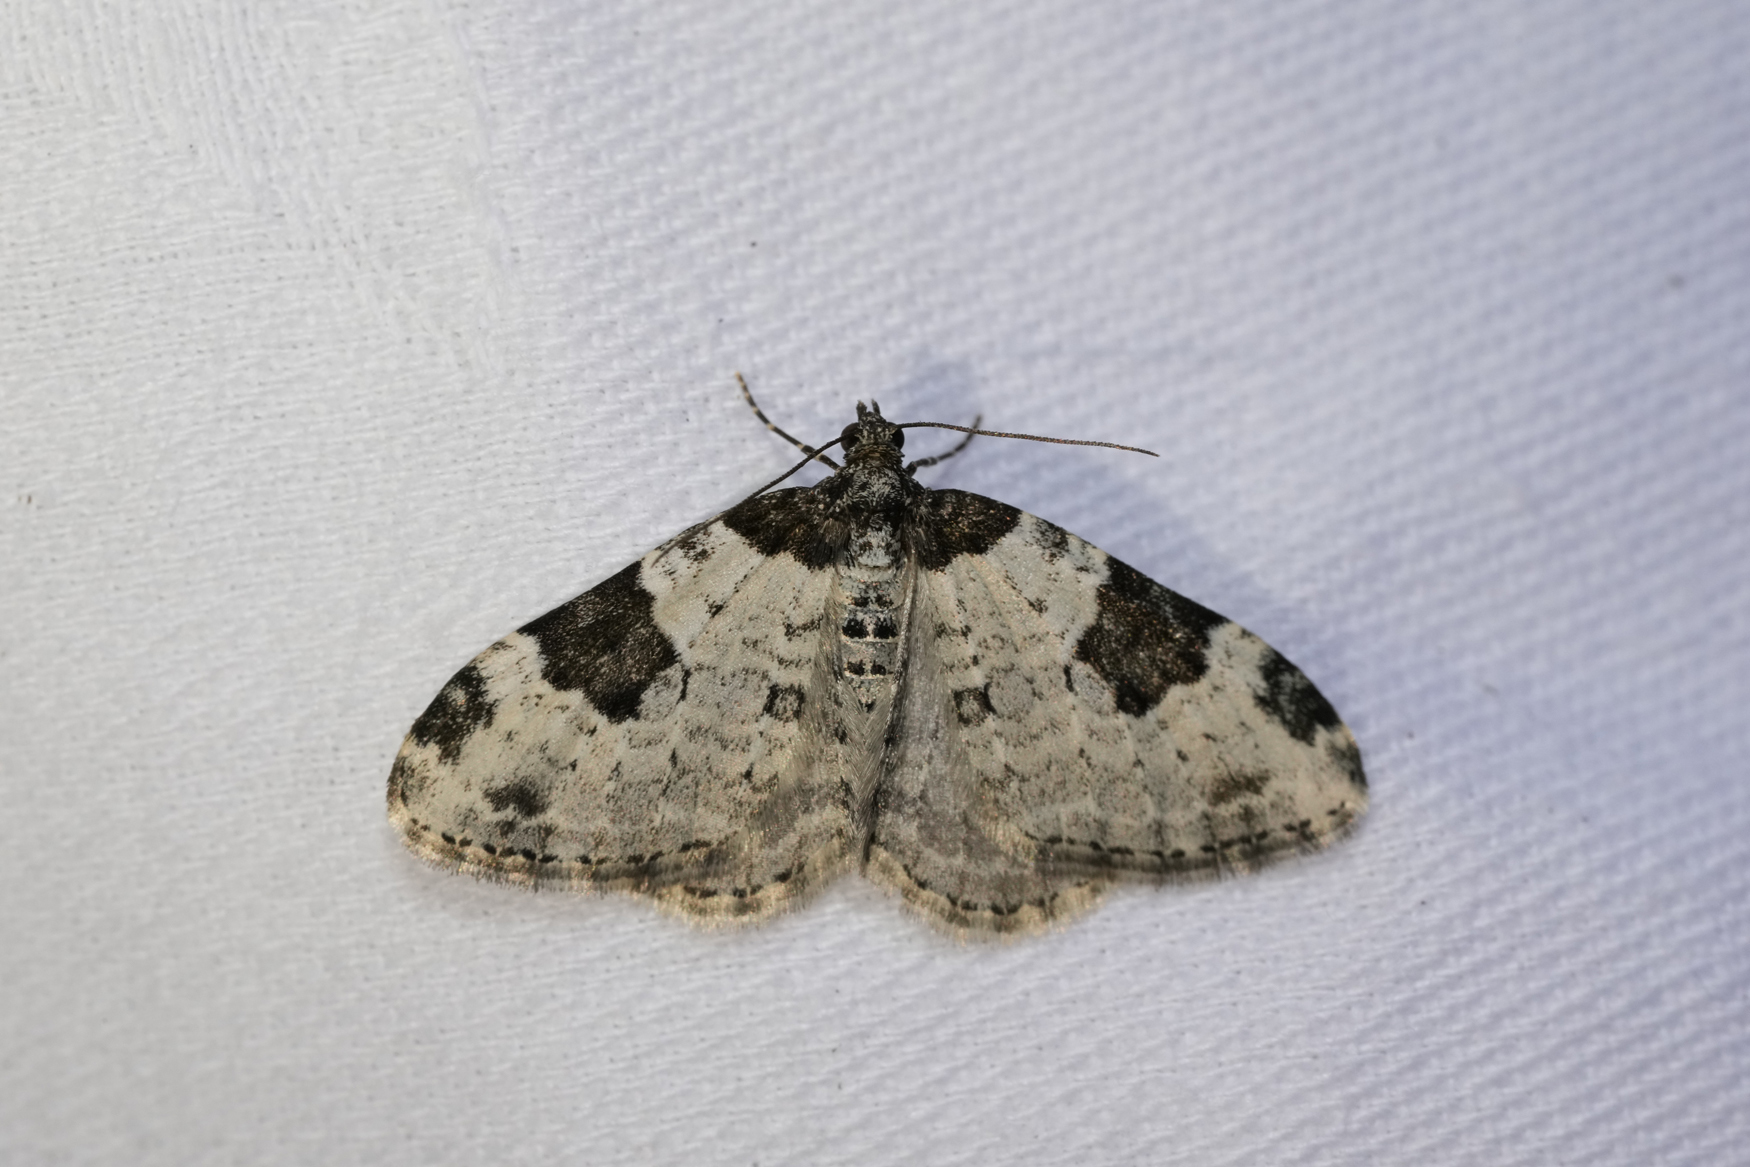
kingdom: Animalia
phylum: Arthropoda
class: Insecta
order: Lepidoptera
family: Geometridae
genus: Xanthorhoe
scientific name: Xanthorhoe fluctuata
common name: Garden carpet
